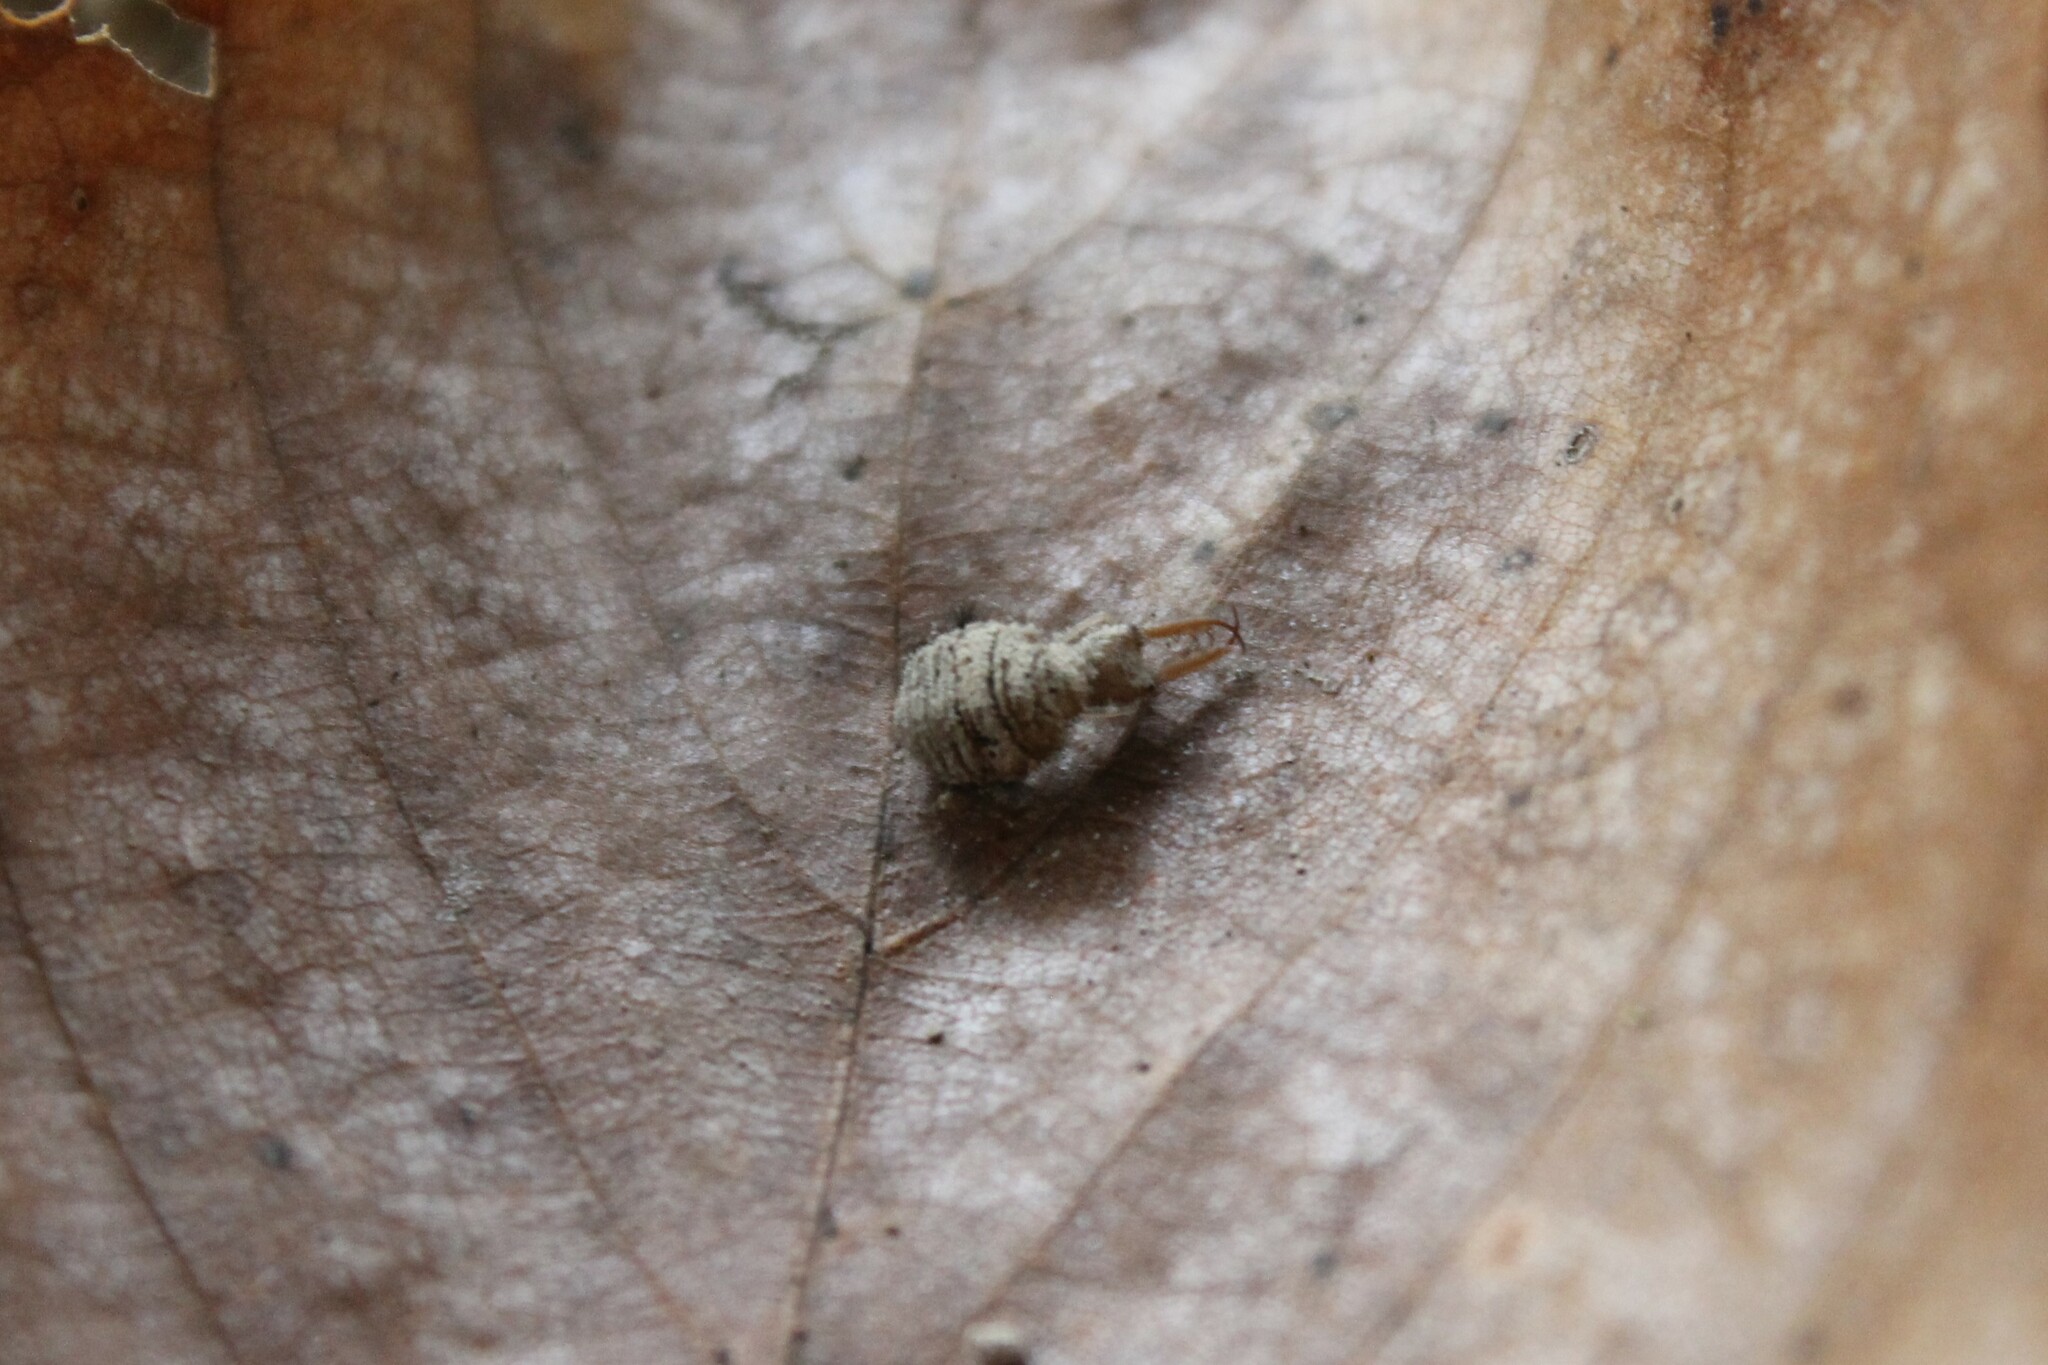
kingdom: Animalia
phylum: Arthropoda
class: Insecta
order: Neuroptera
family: Myrmeleontidae
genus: Myrmeleon
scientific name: Myrmeleon immaculatus
